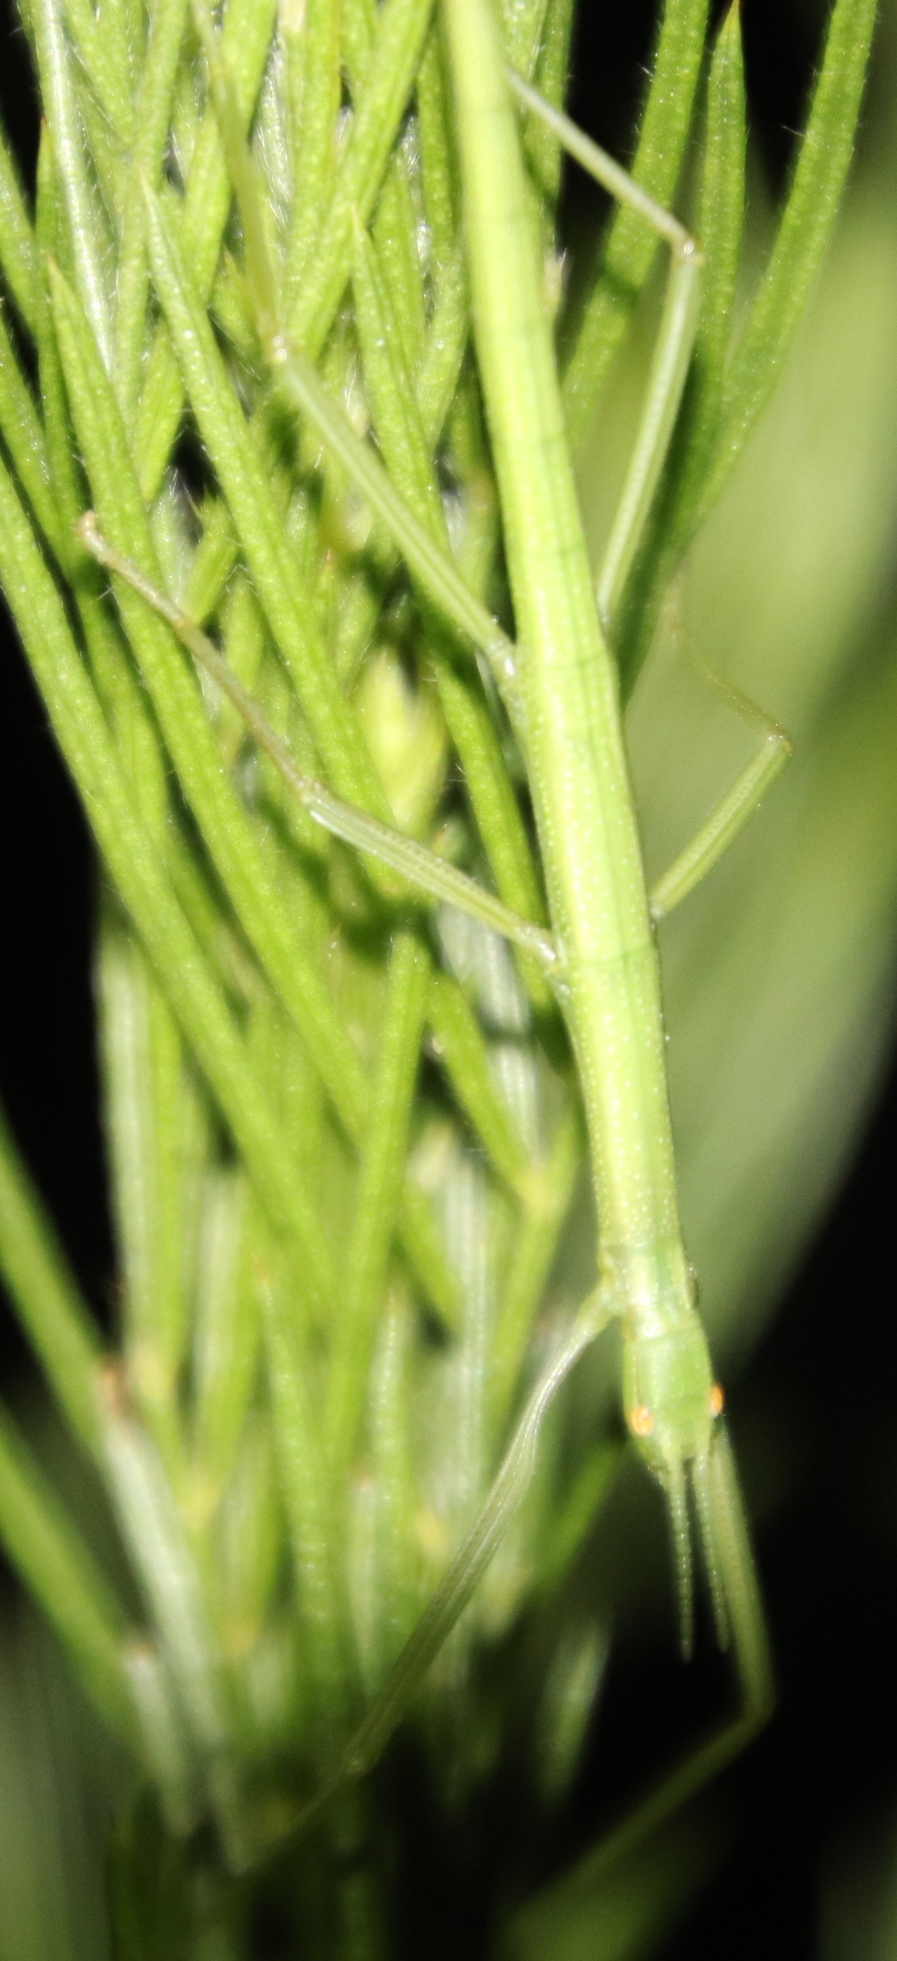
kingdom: Animalia
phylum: Arthropoda
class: Insecta
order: Phasmida
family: Bacillidae
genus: Macynia
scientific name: Macynia labiata
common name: Thunberg's stick insect
